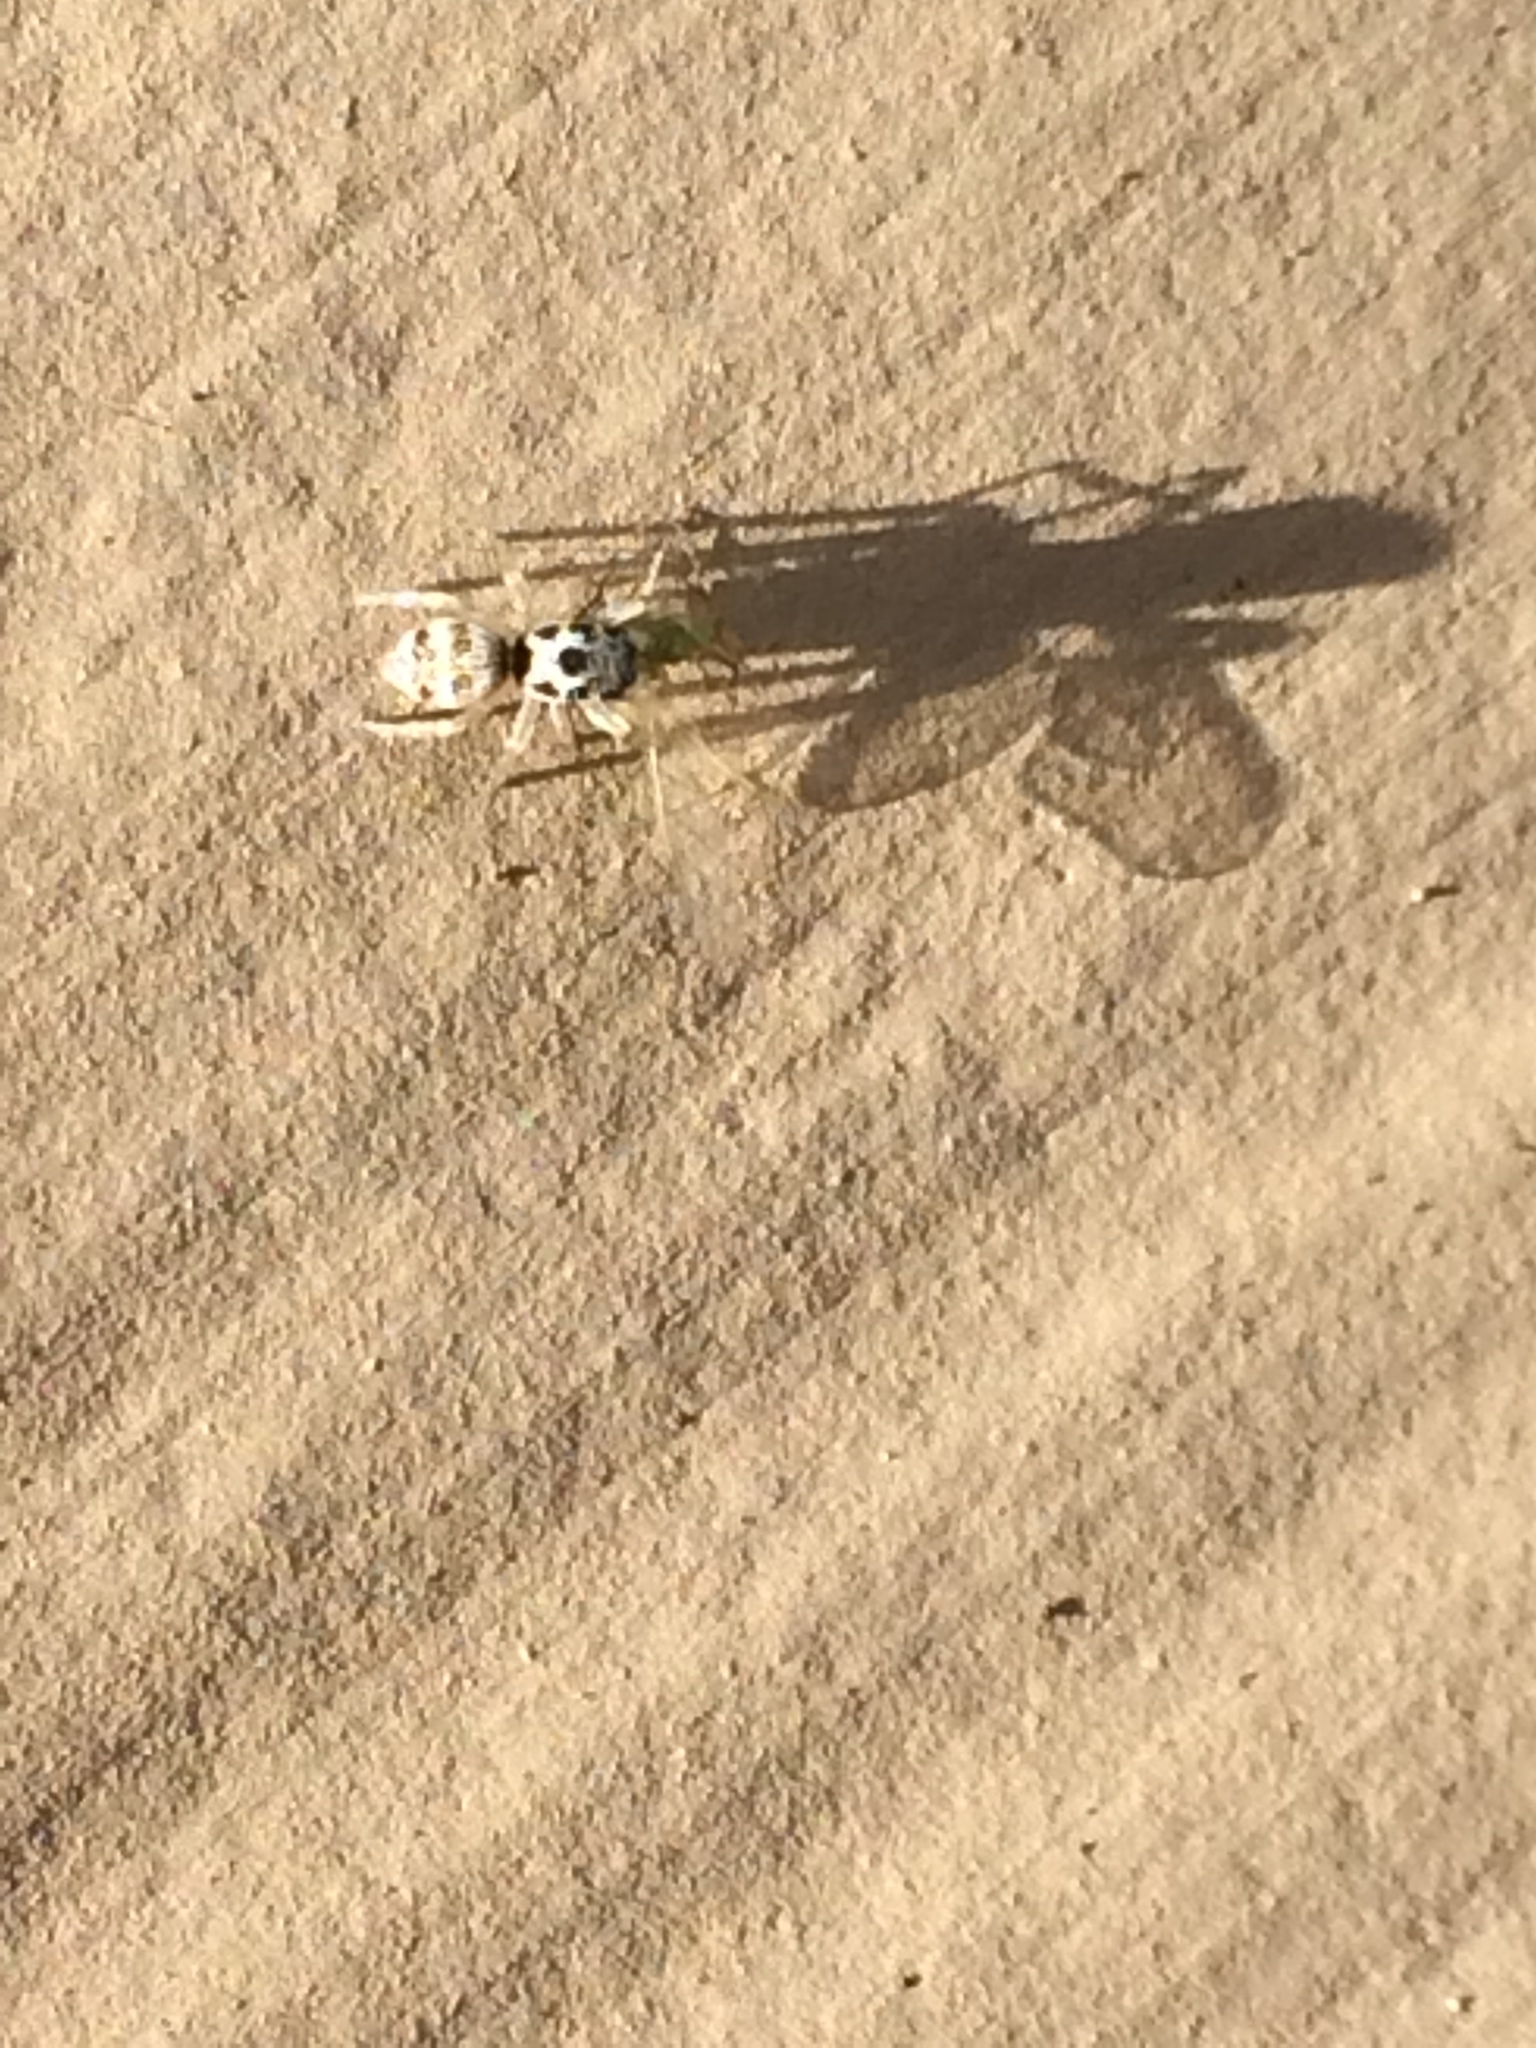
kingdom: Animalia
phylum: Arthropoda
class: Arachnida
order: Araneae
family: Salticidae
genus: Salticus
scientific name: Salticus scenicus
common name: Zebra jumper
